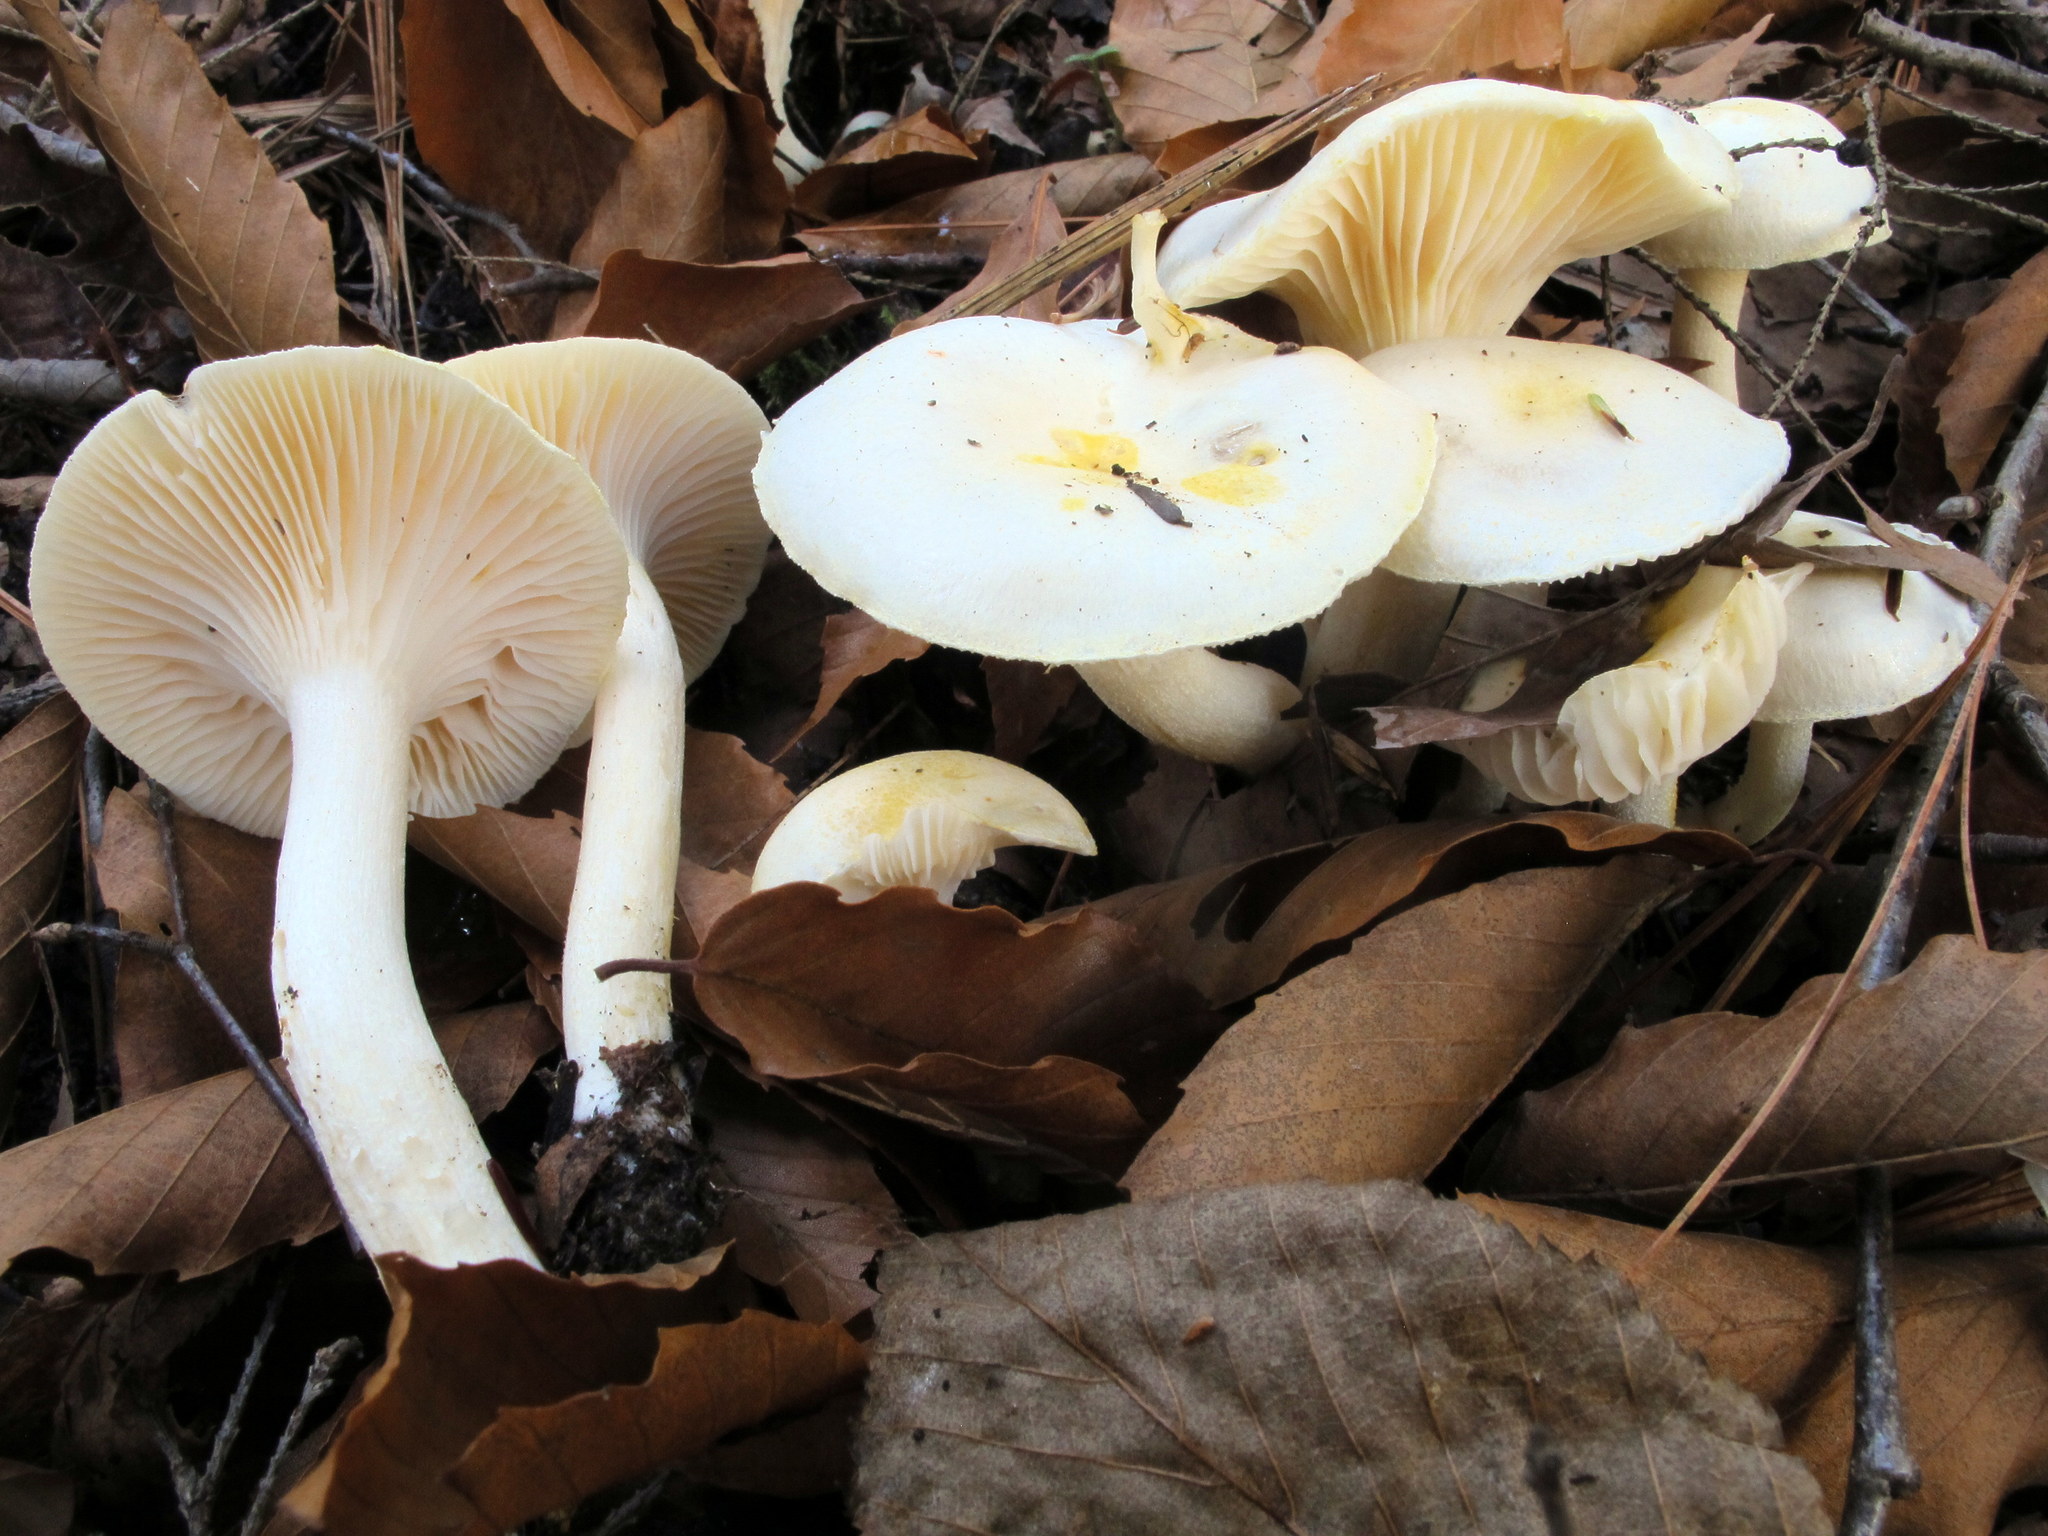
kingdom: Fungi
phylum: Basidiomycota
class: Agaricomycetes
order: Agaricales
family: Hygrophoraceae
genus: Hygrophorus
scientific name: Hygrophorus chrysodon
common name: Gold flecked woodwax
